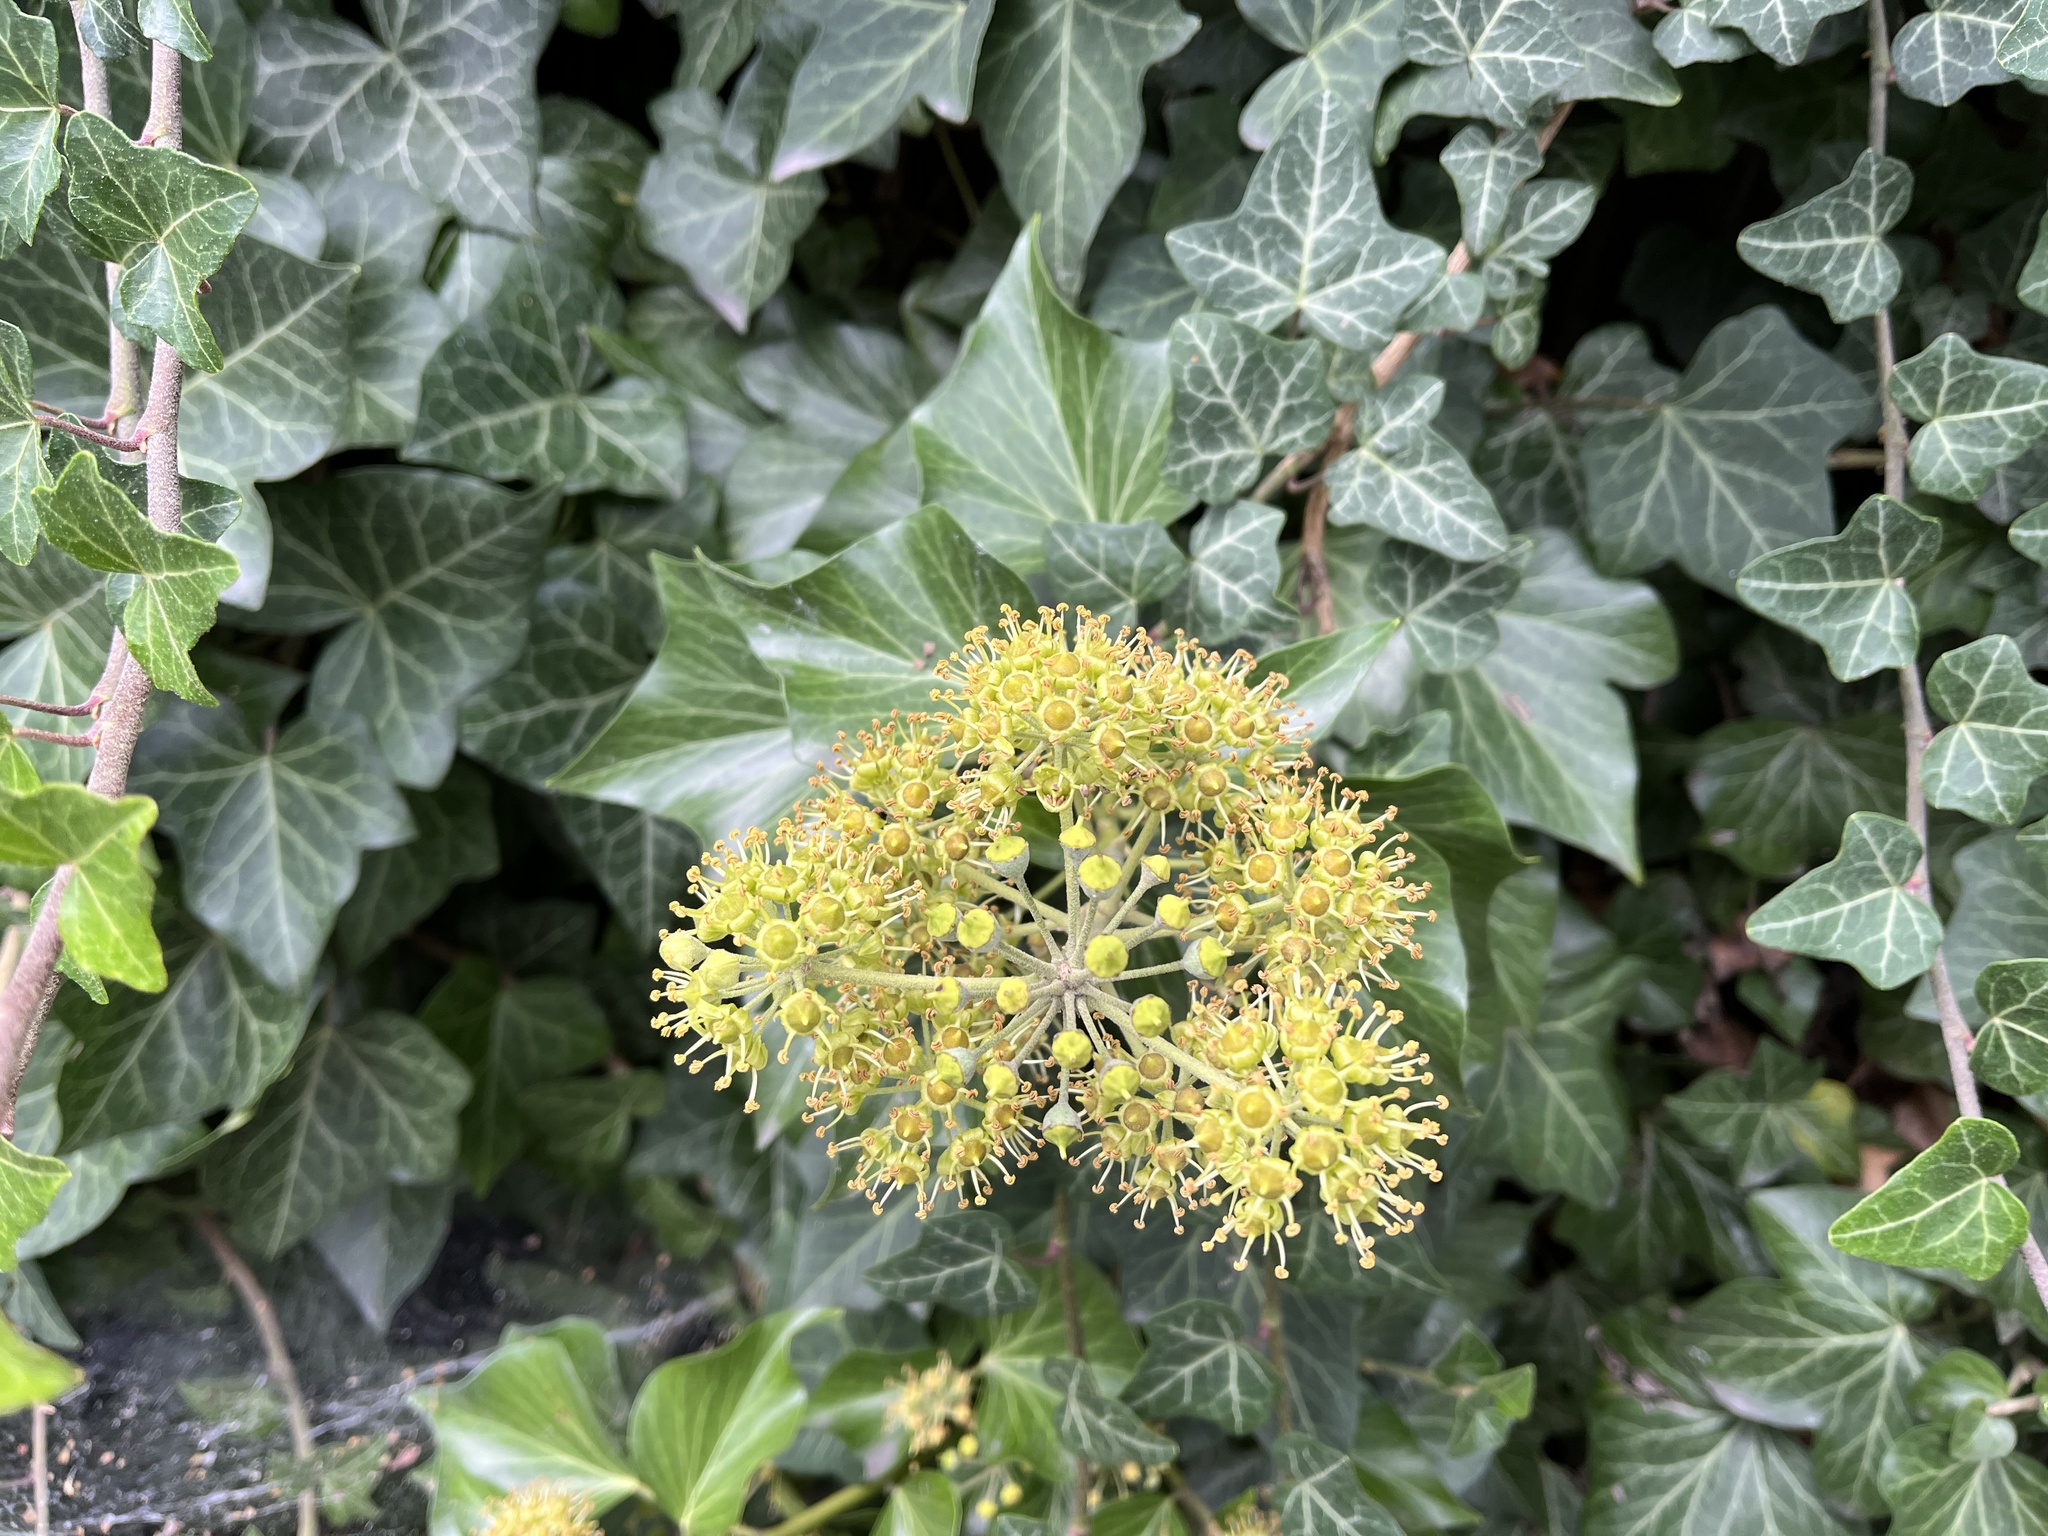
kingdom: Plantae
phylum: Tracheophyta
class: Magnoliopsida
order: Apiales
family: Araliaceae
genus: Hedera
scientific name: Hedera helix
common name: Ivy
